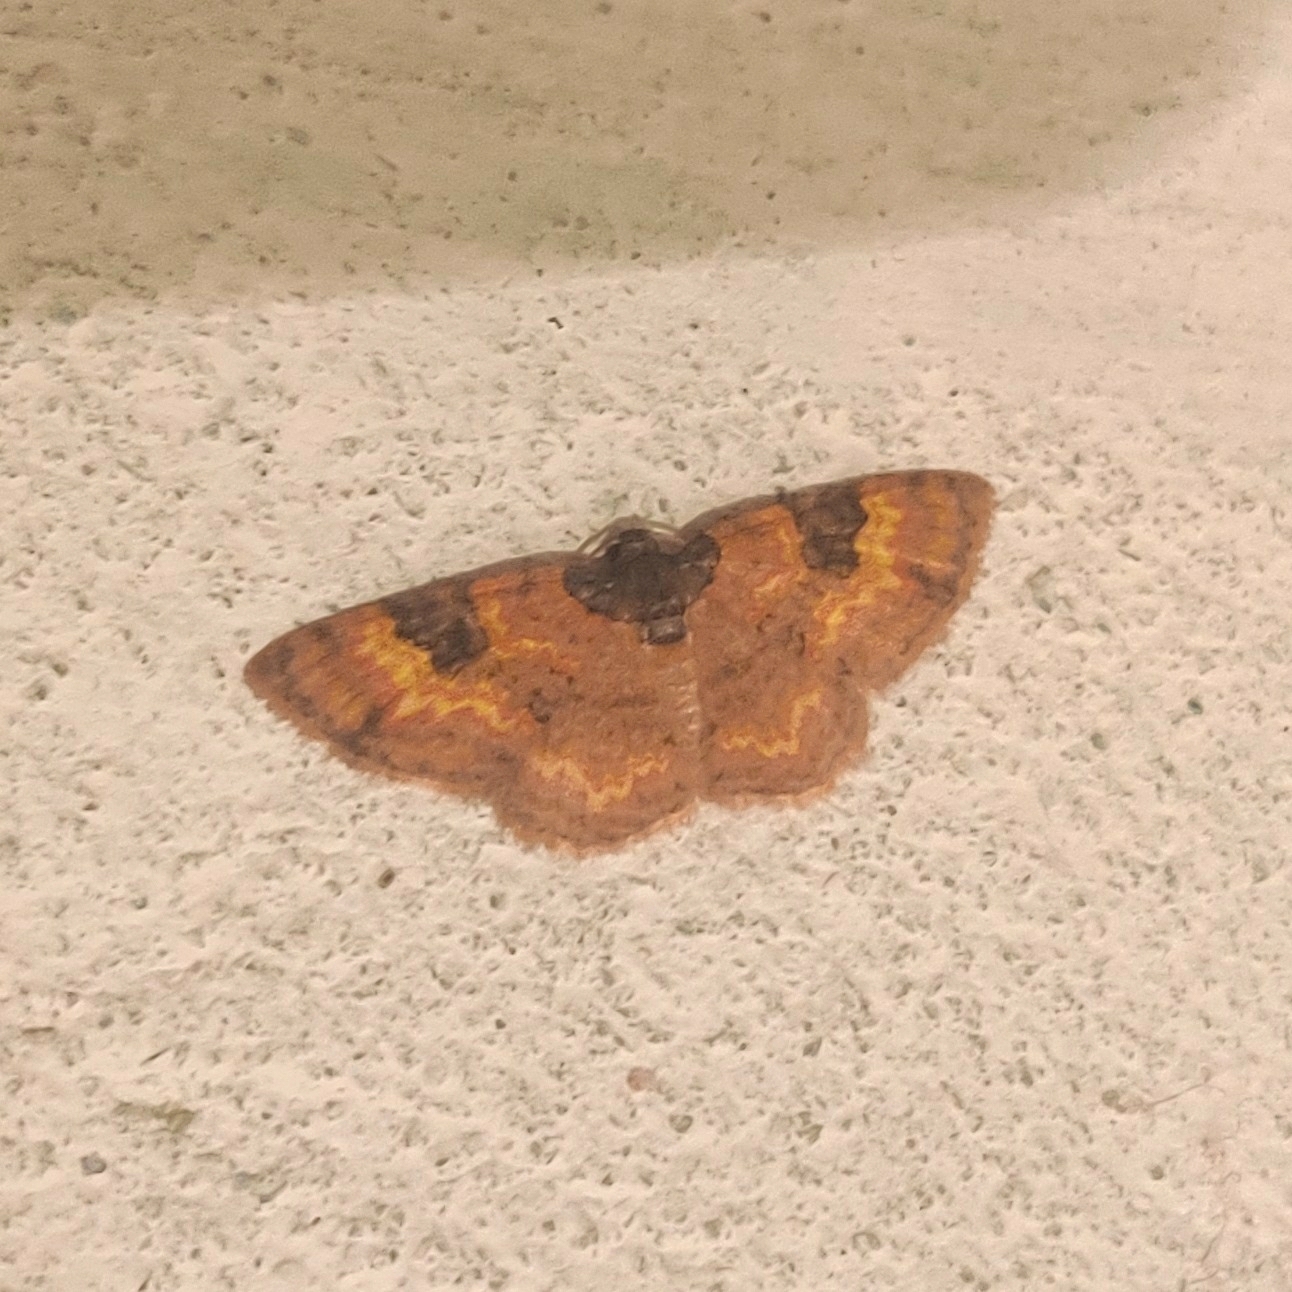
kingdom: Animalia
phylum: Arthropoda
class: Insecta
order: Lepidoptera
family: Geometridae
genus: Hydrelia
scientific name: Hydrelia bicolorata
